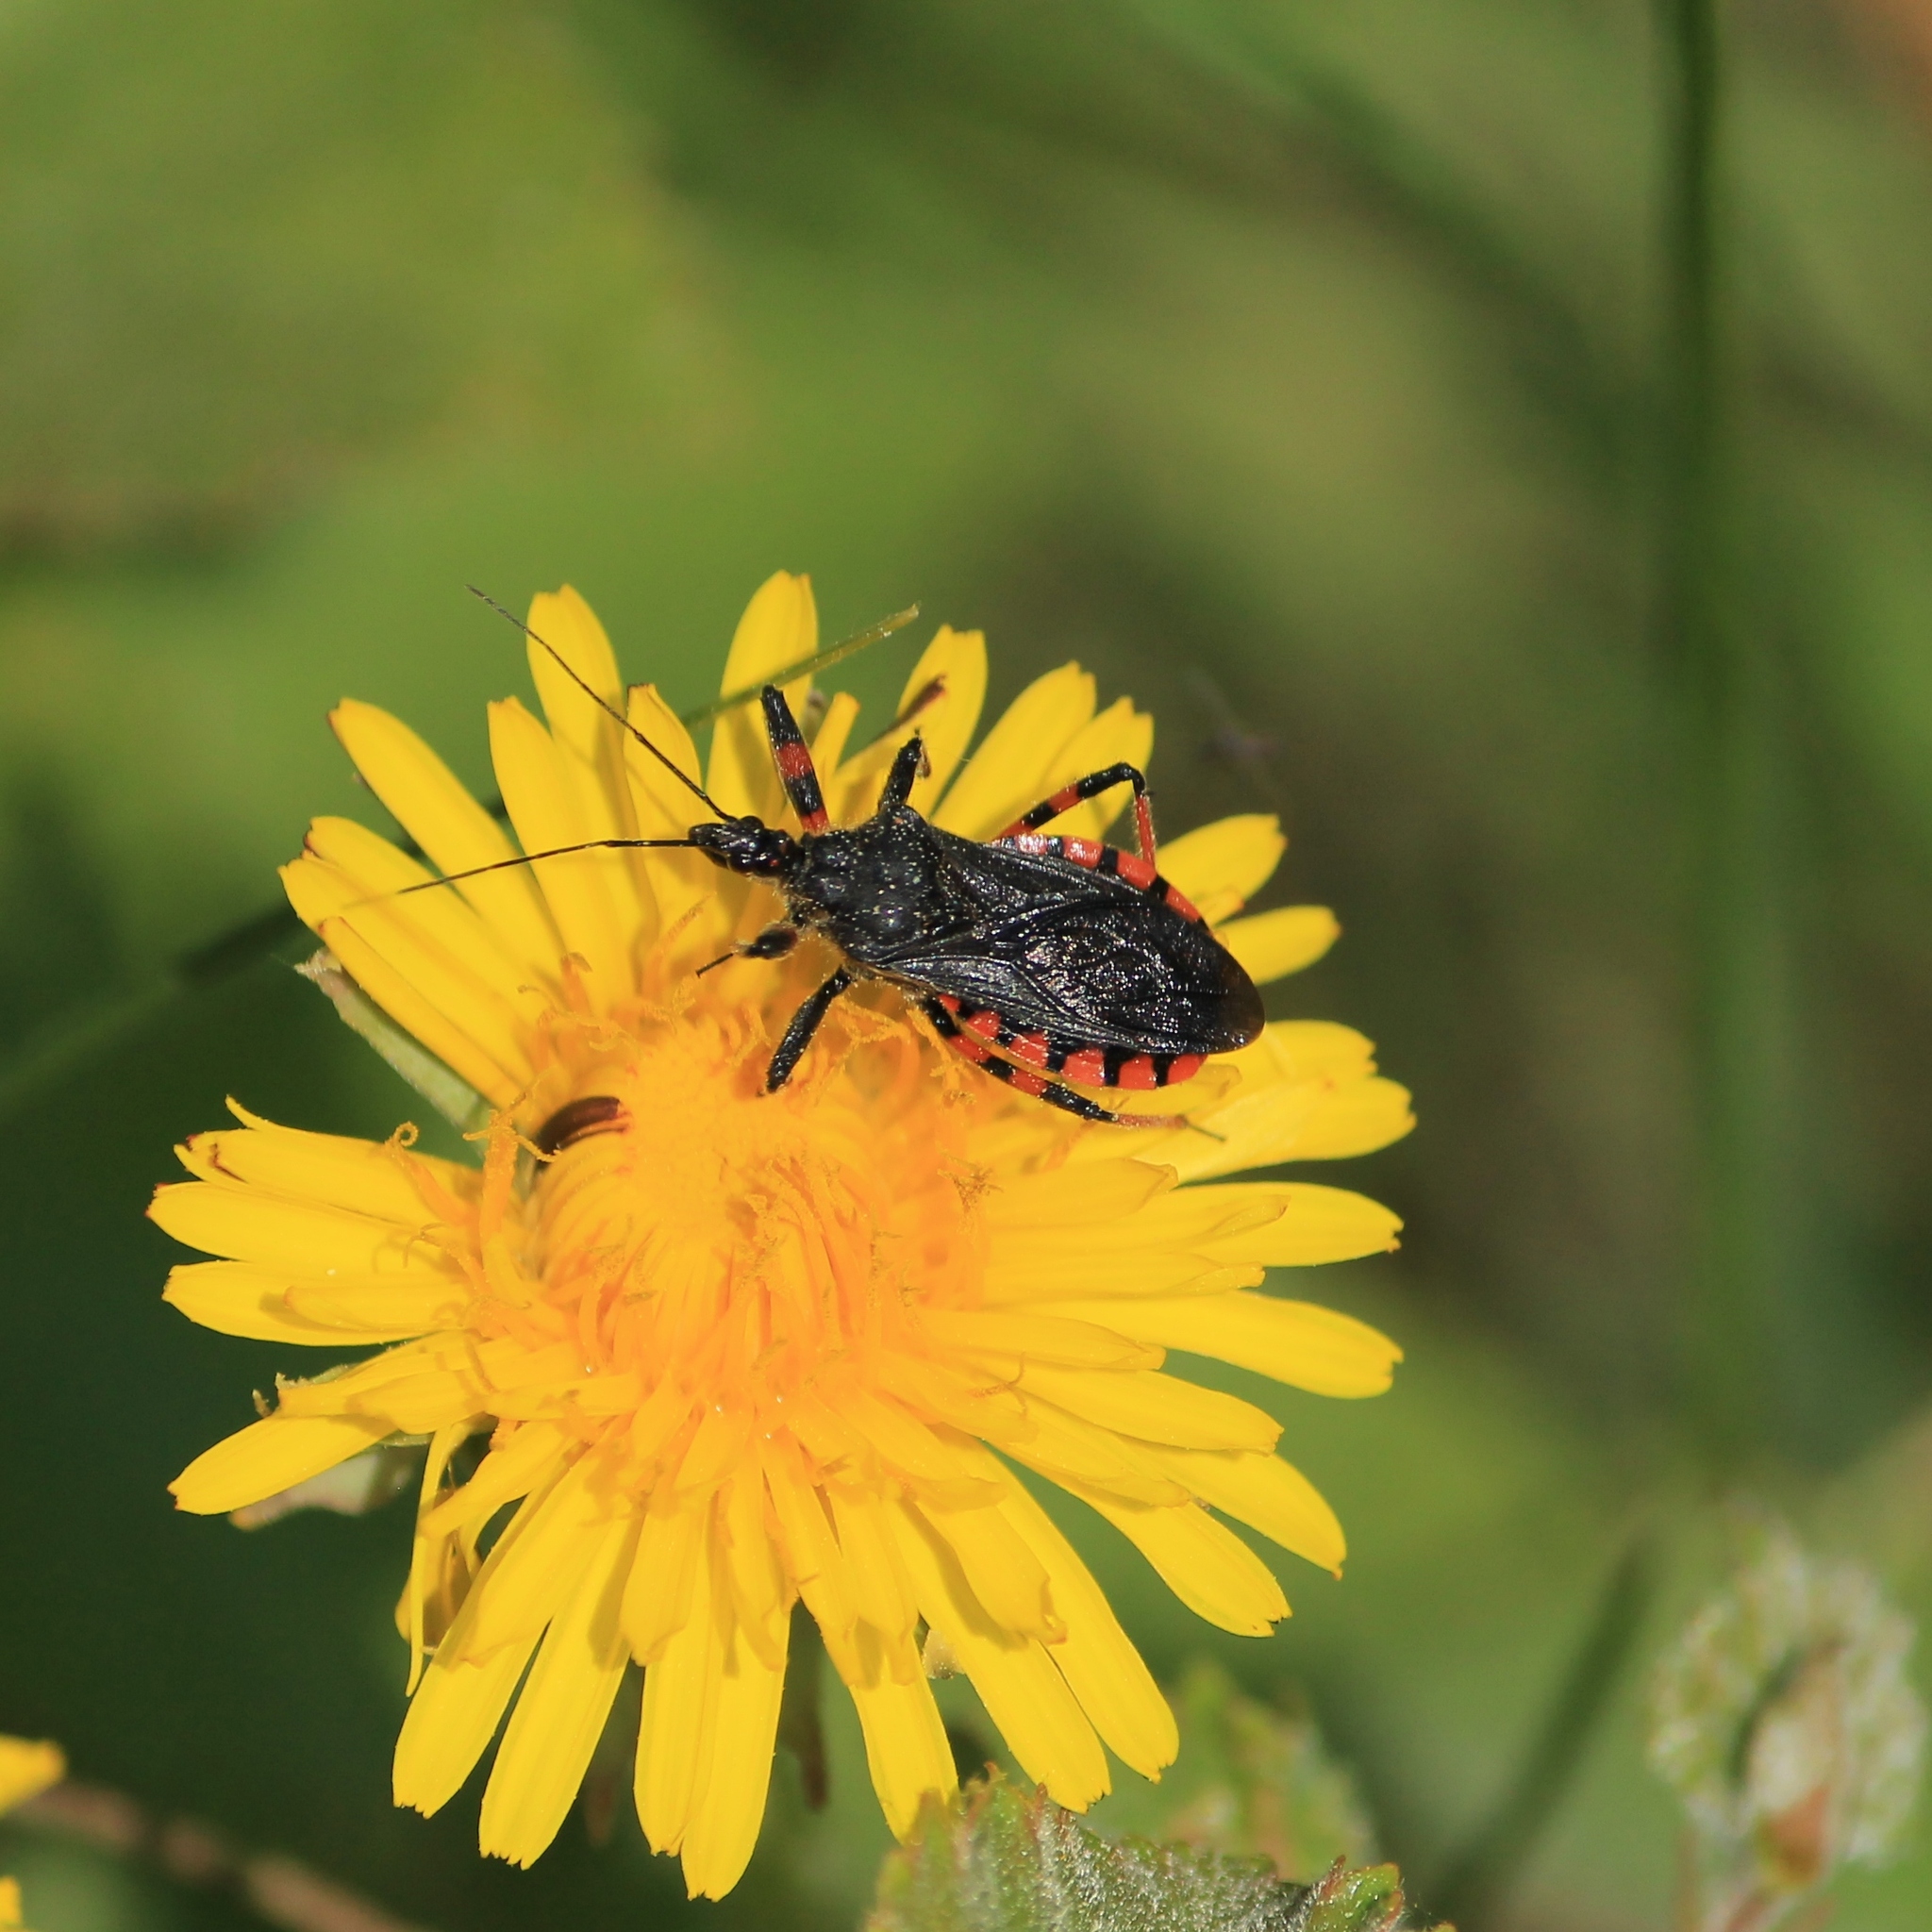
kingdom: Animalia
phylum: Arthropoda
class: Insecta
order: Hemiptera
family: Reduviidae
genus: Rhynocoris
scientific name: Rhynocoris annulatus
